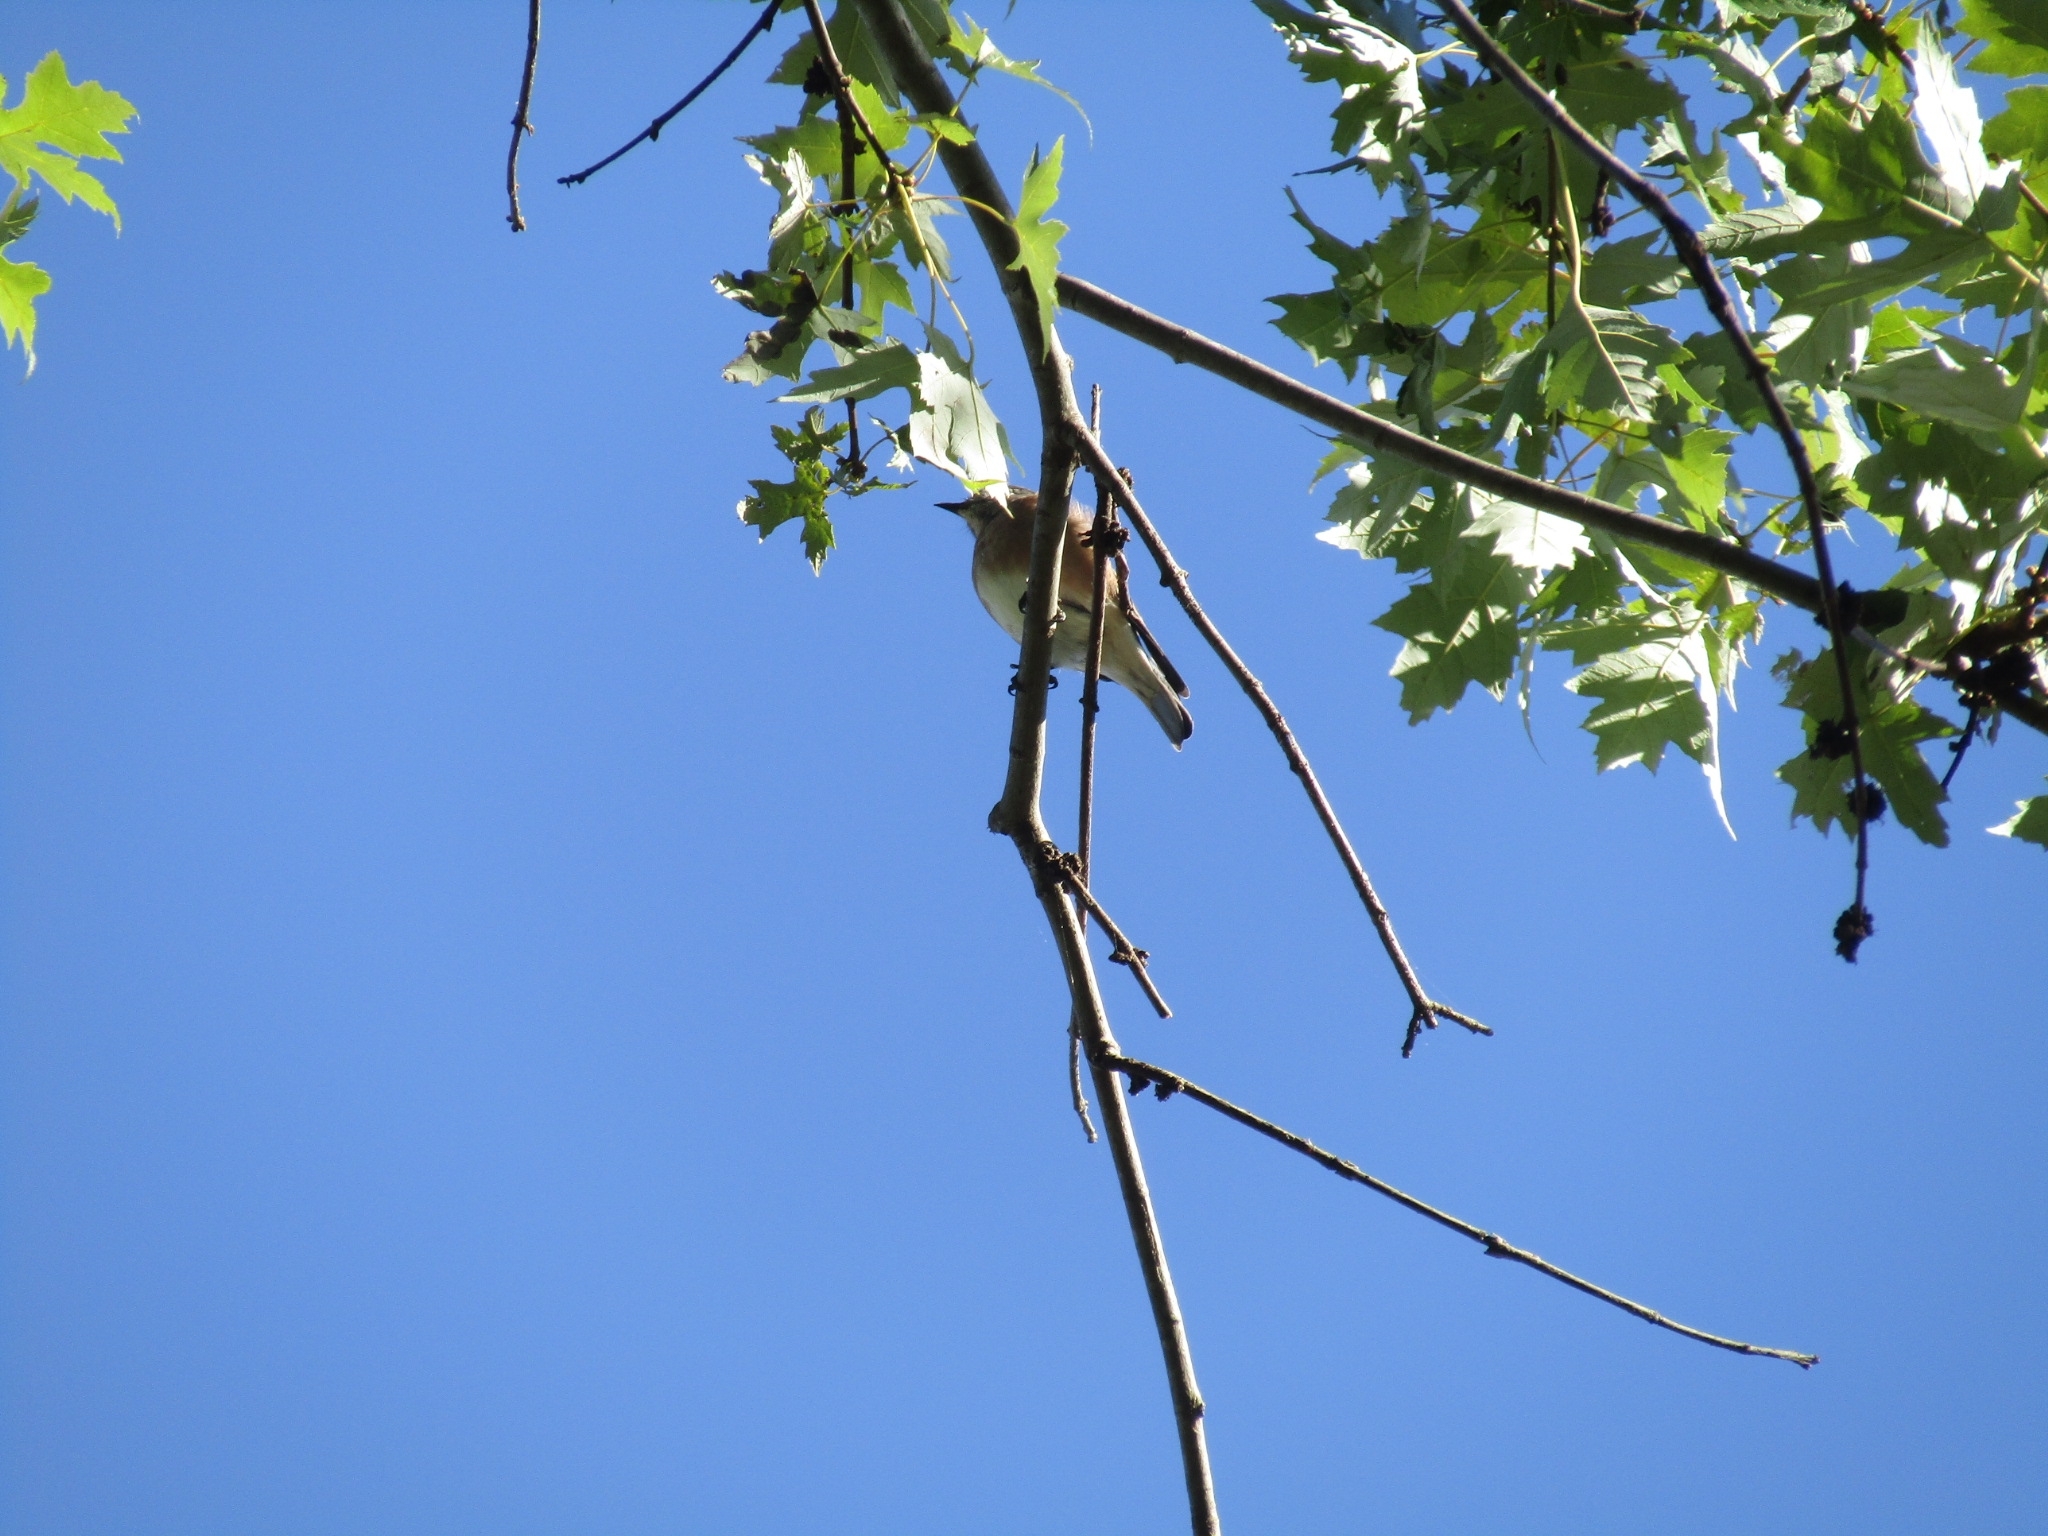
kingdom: Animalia
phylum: Chordata
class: Aves
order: Passeriformes
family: Turdidae
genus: Sialia
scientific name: Sialia sialis
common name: Eastern bluebird
